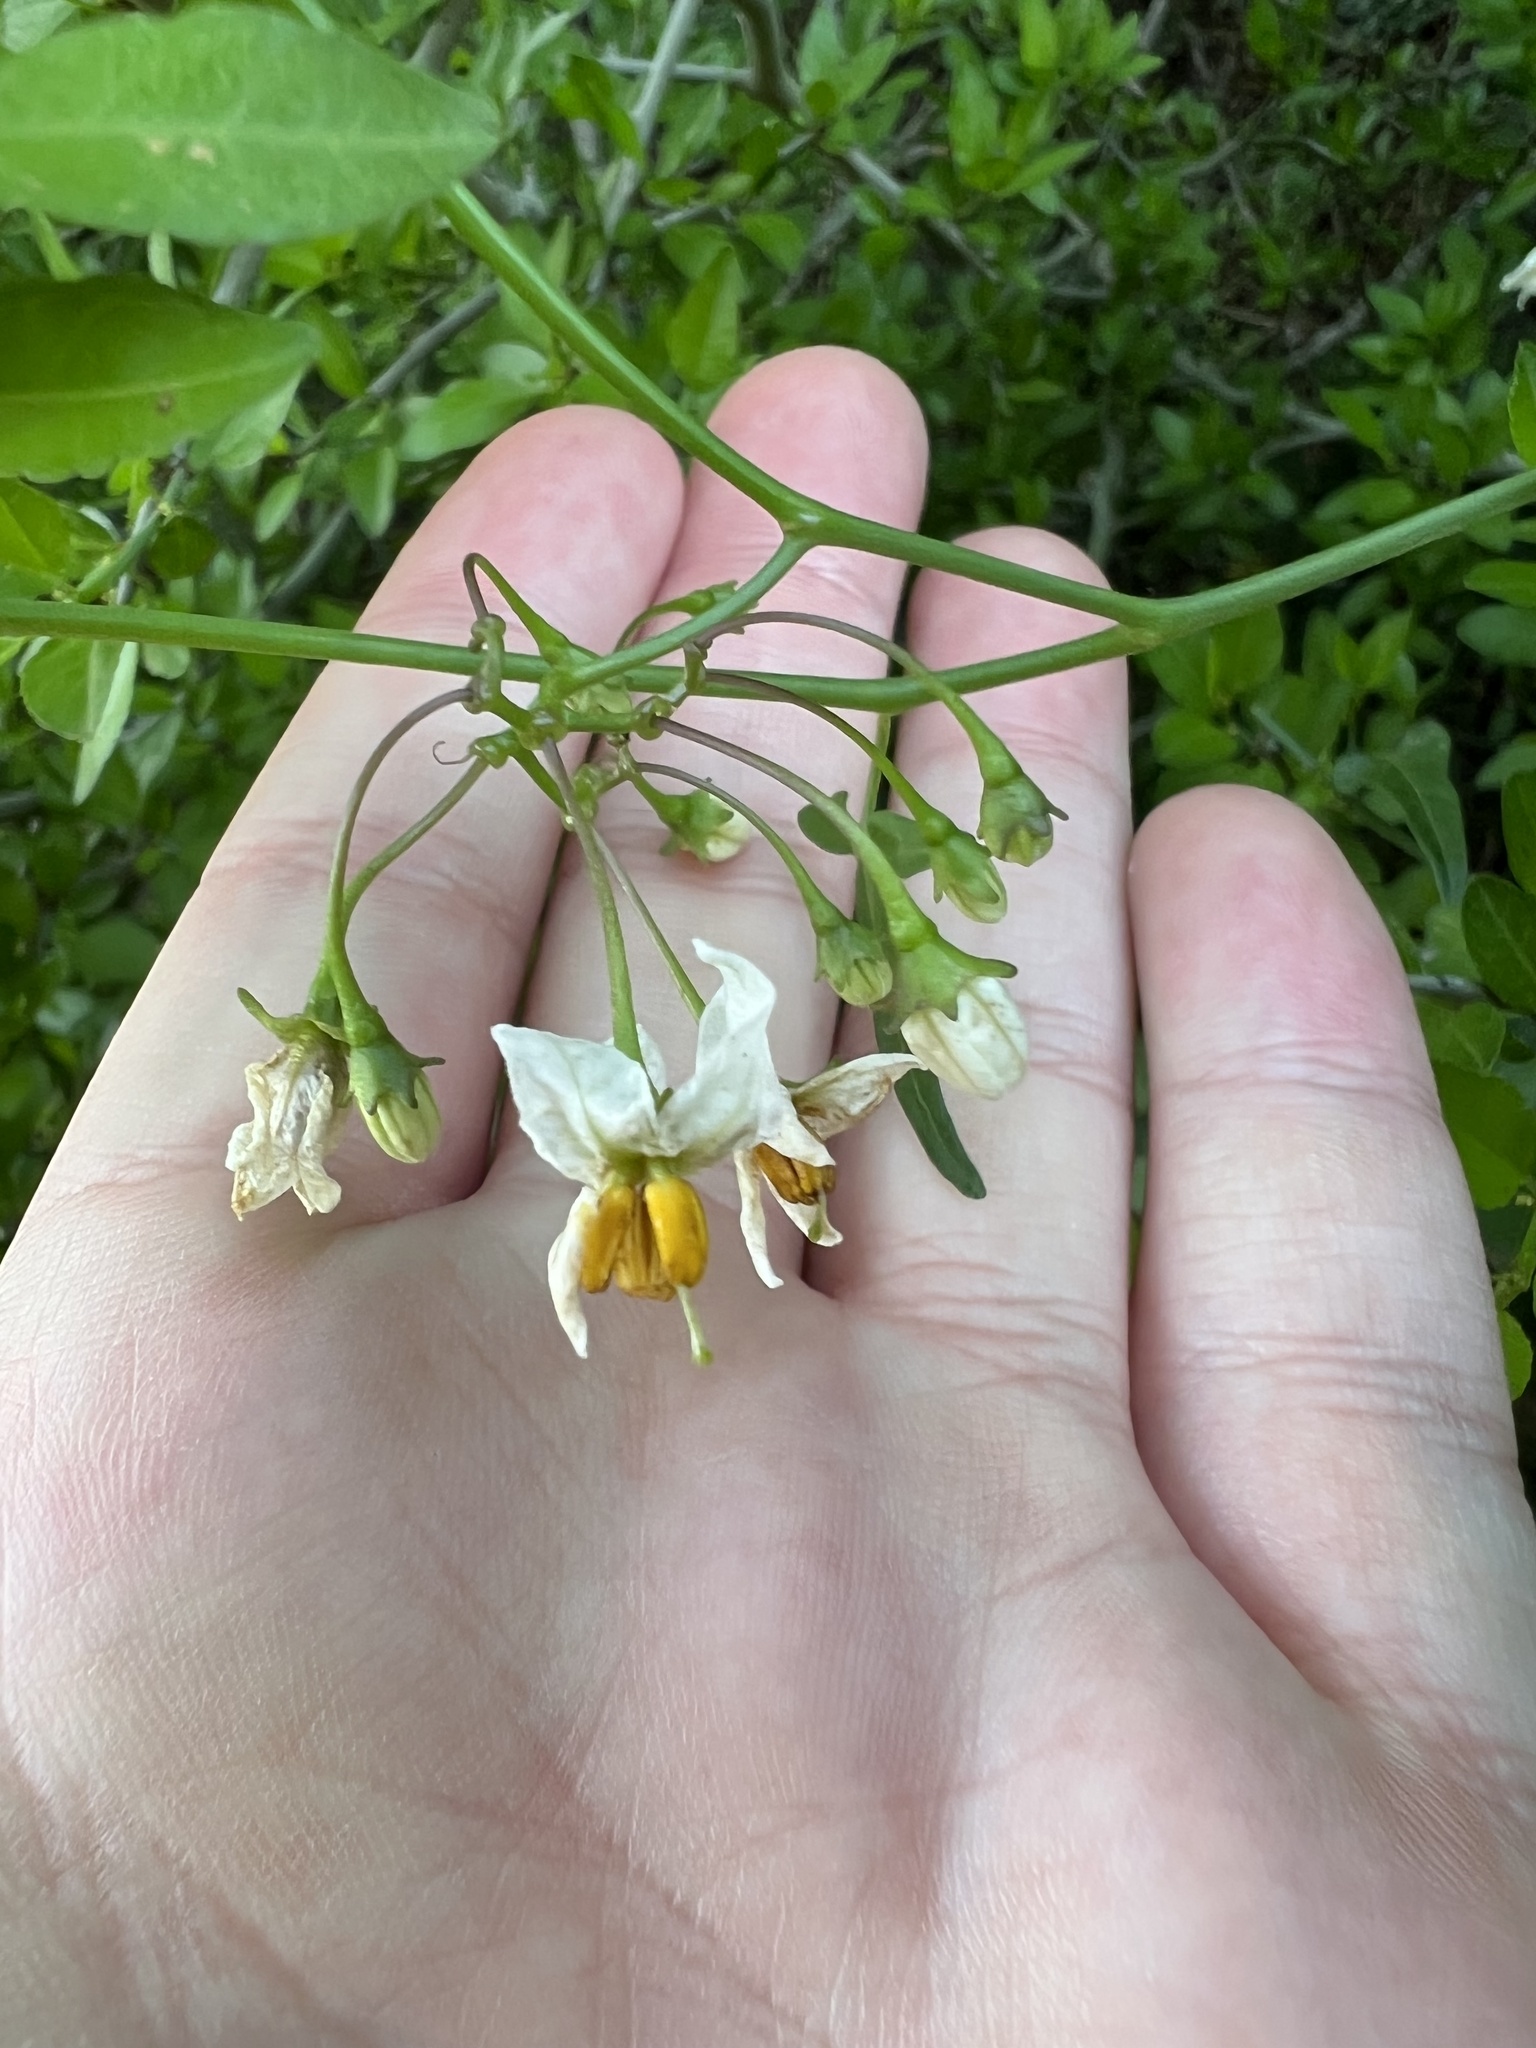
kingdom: Plantae
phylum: Tracheophyta
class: Magnoliopsida
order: Solanales
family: Solanaceae
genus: Solanum
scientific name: Solanum triquetrum
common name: Texas nightshade
